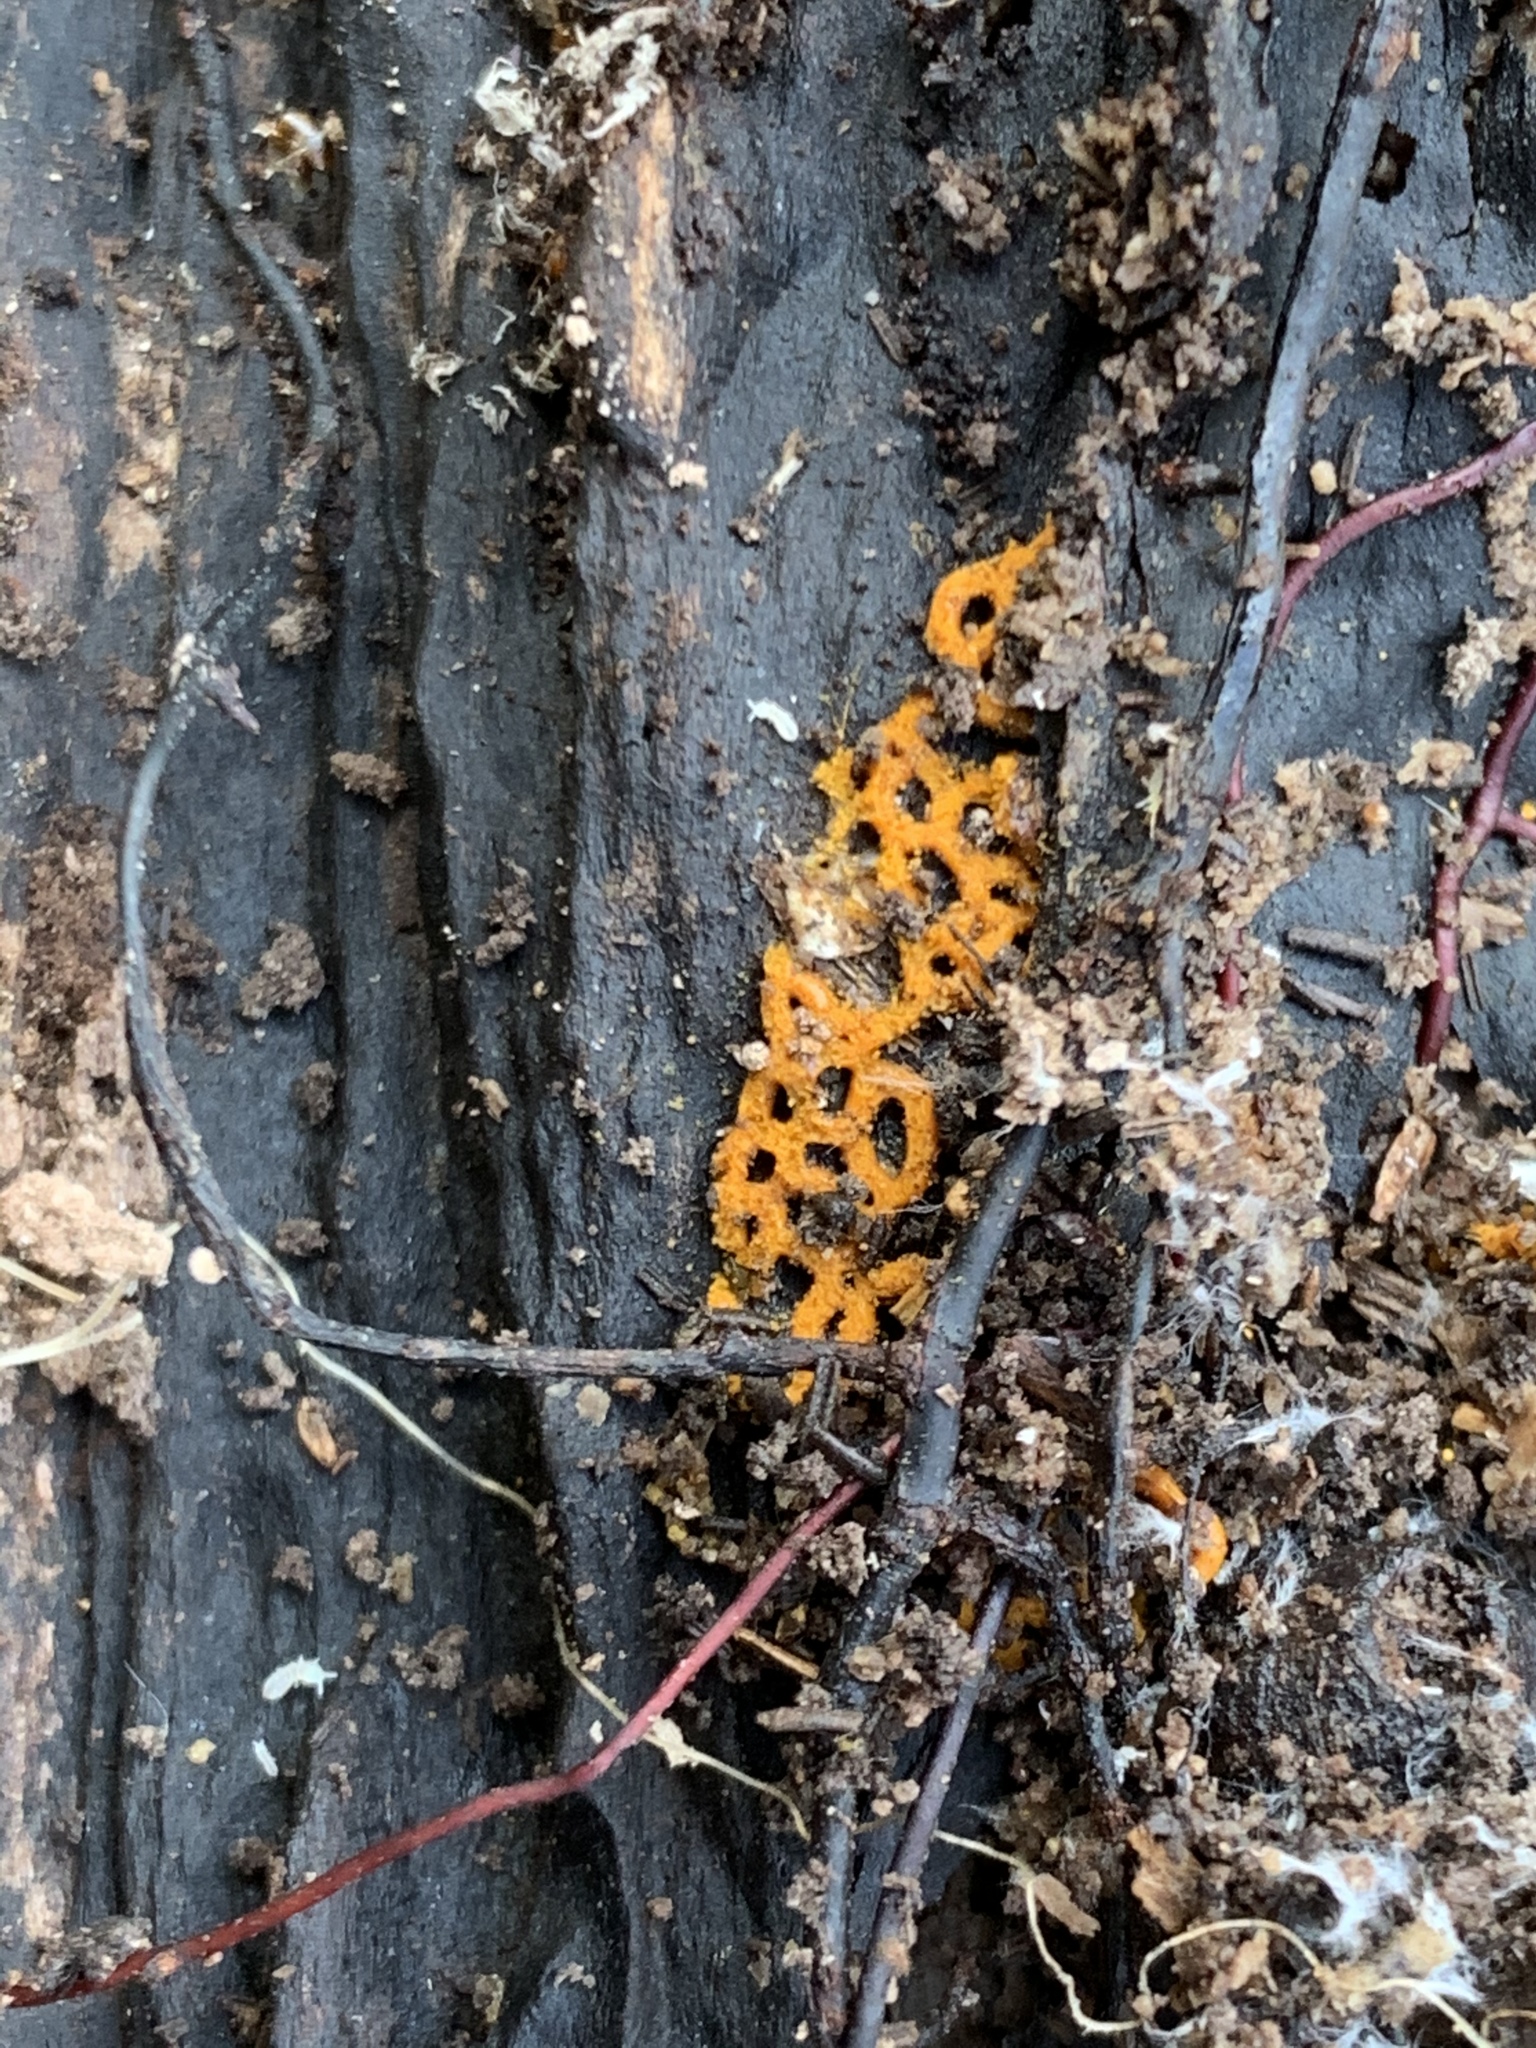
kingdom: Protozoa
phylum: Mycetozoa
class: Myxomycetes
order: Trichiales
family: Arcyriaceae
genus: Hemitrichia
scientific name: Hemitrichia serpula
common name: Pretzel slime mold
